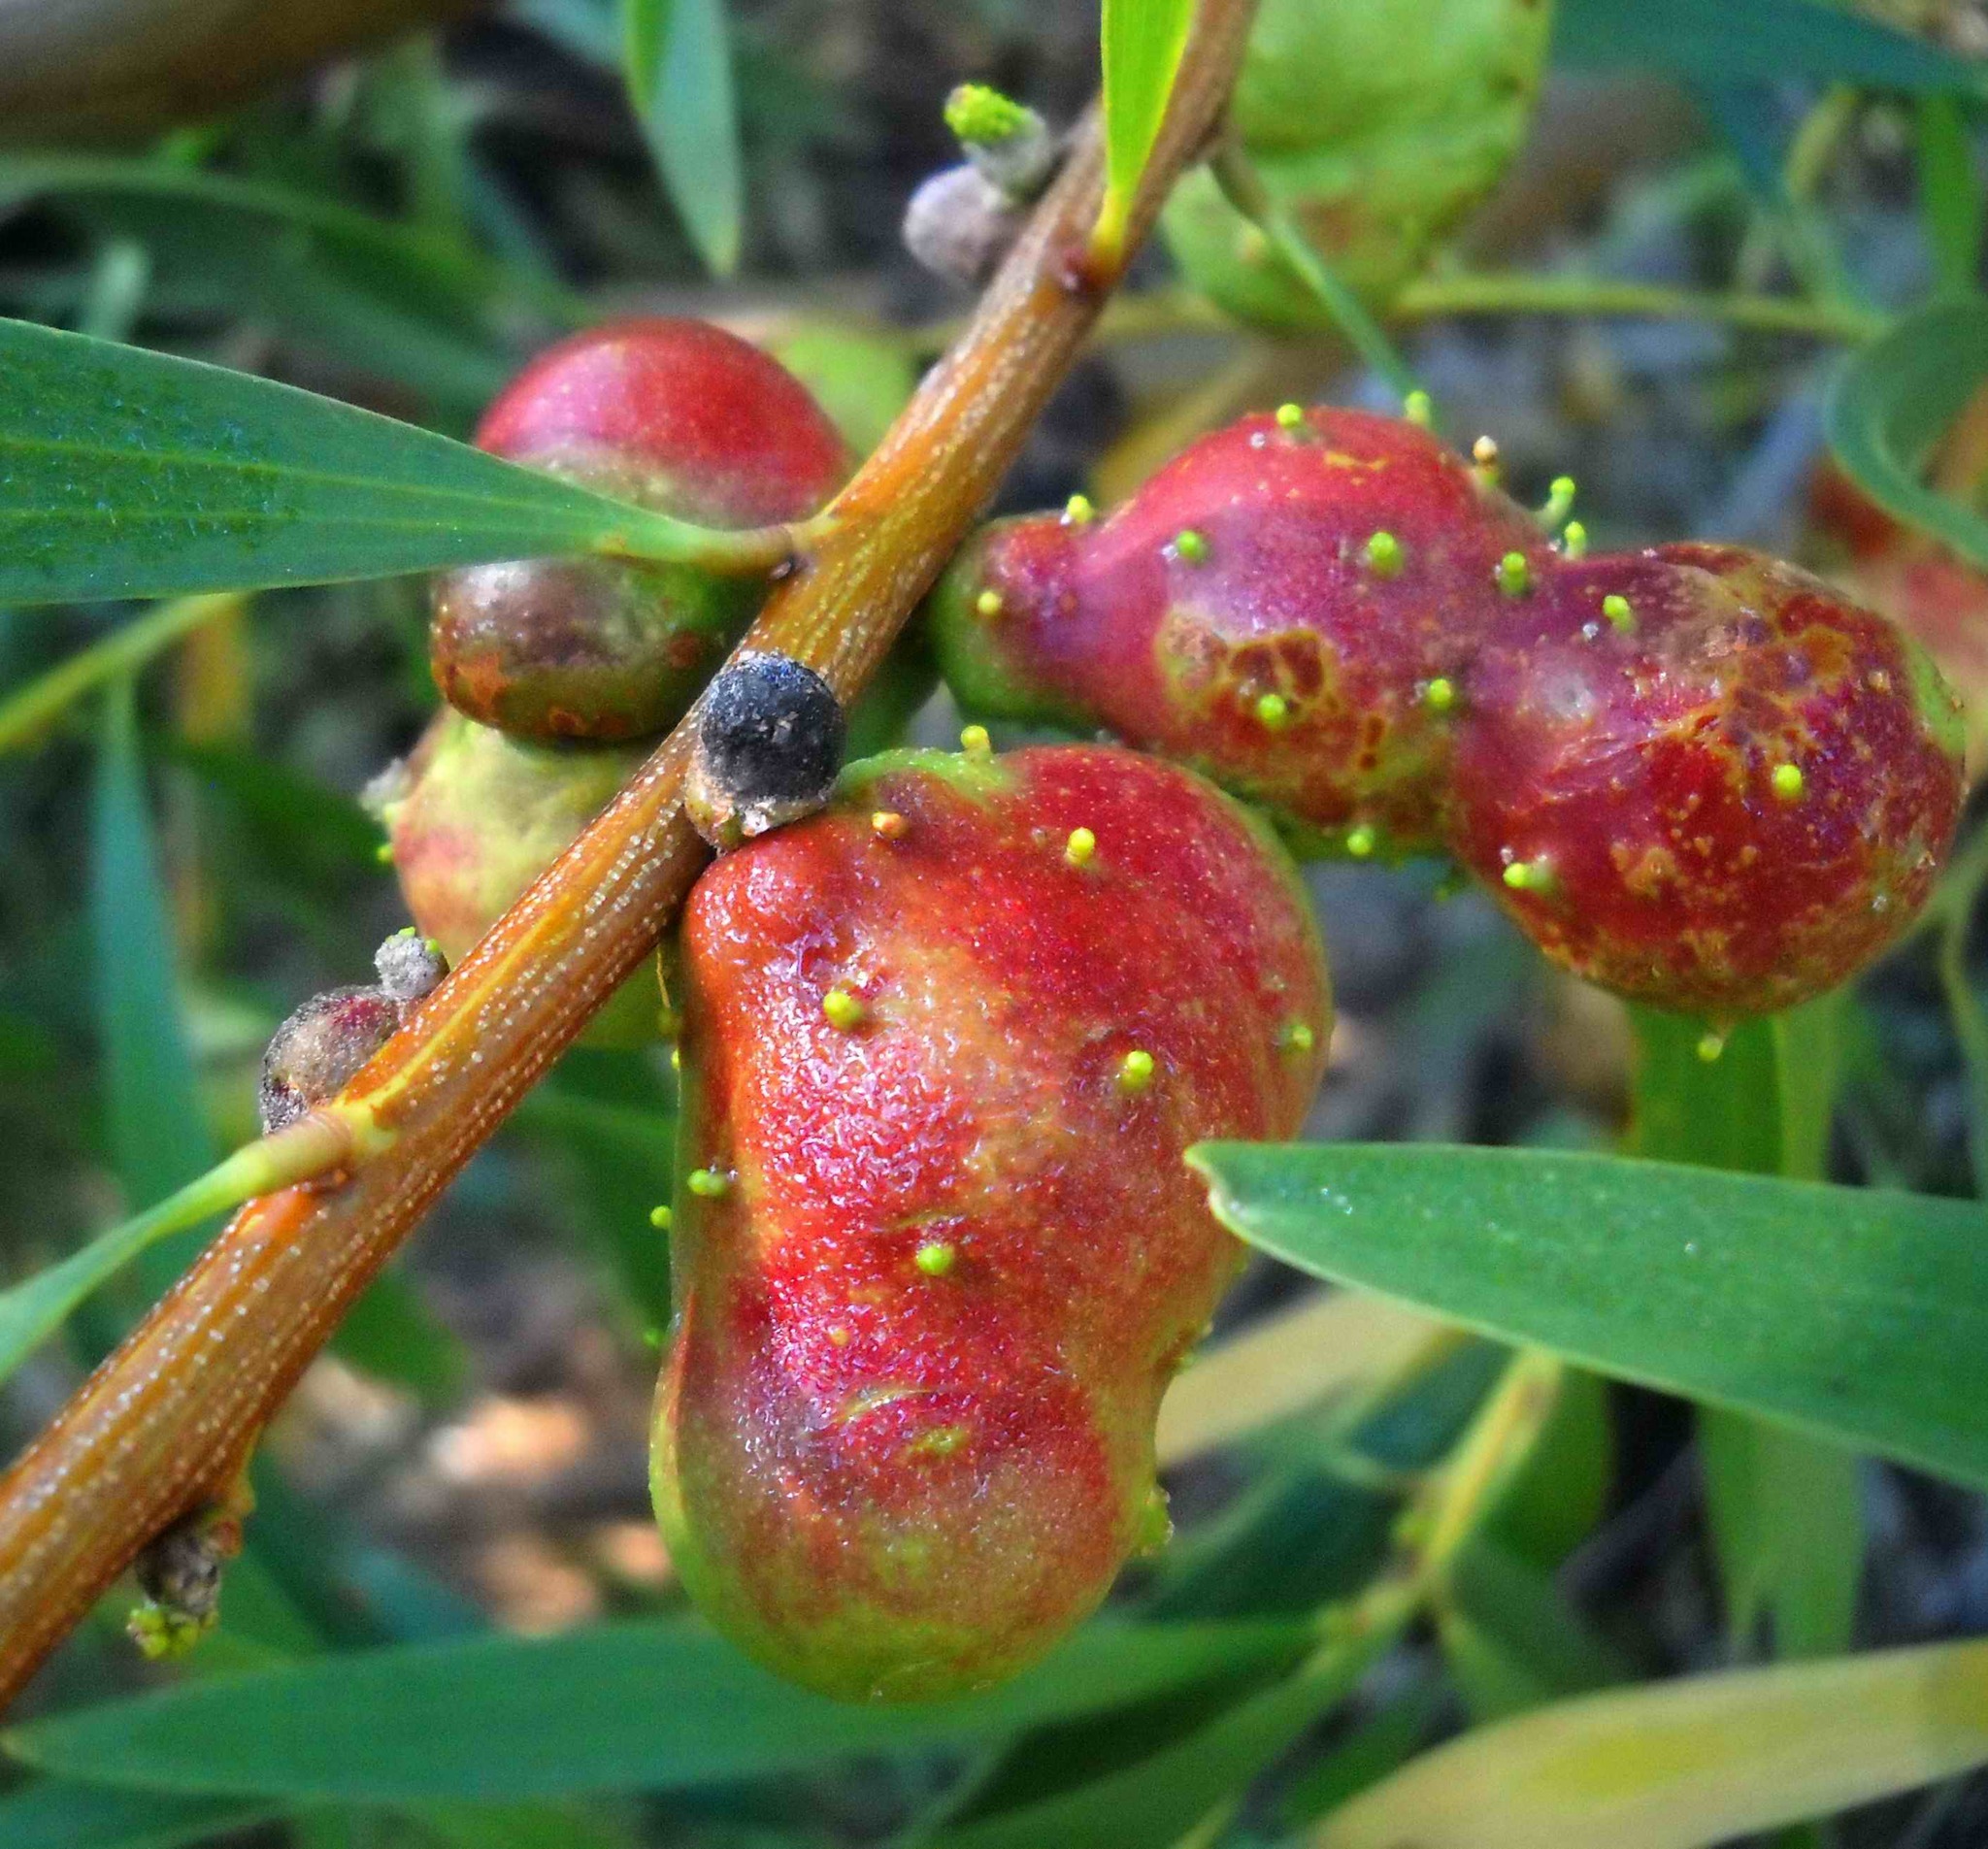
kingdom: Plantae
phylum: Tracheophyta
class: Magnoliopsida
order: Fabales
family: Fabaceae
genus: Acacia
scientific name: Acacia longifolia
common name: Sydney golden wattle
